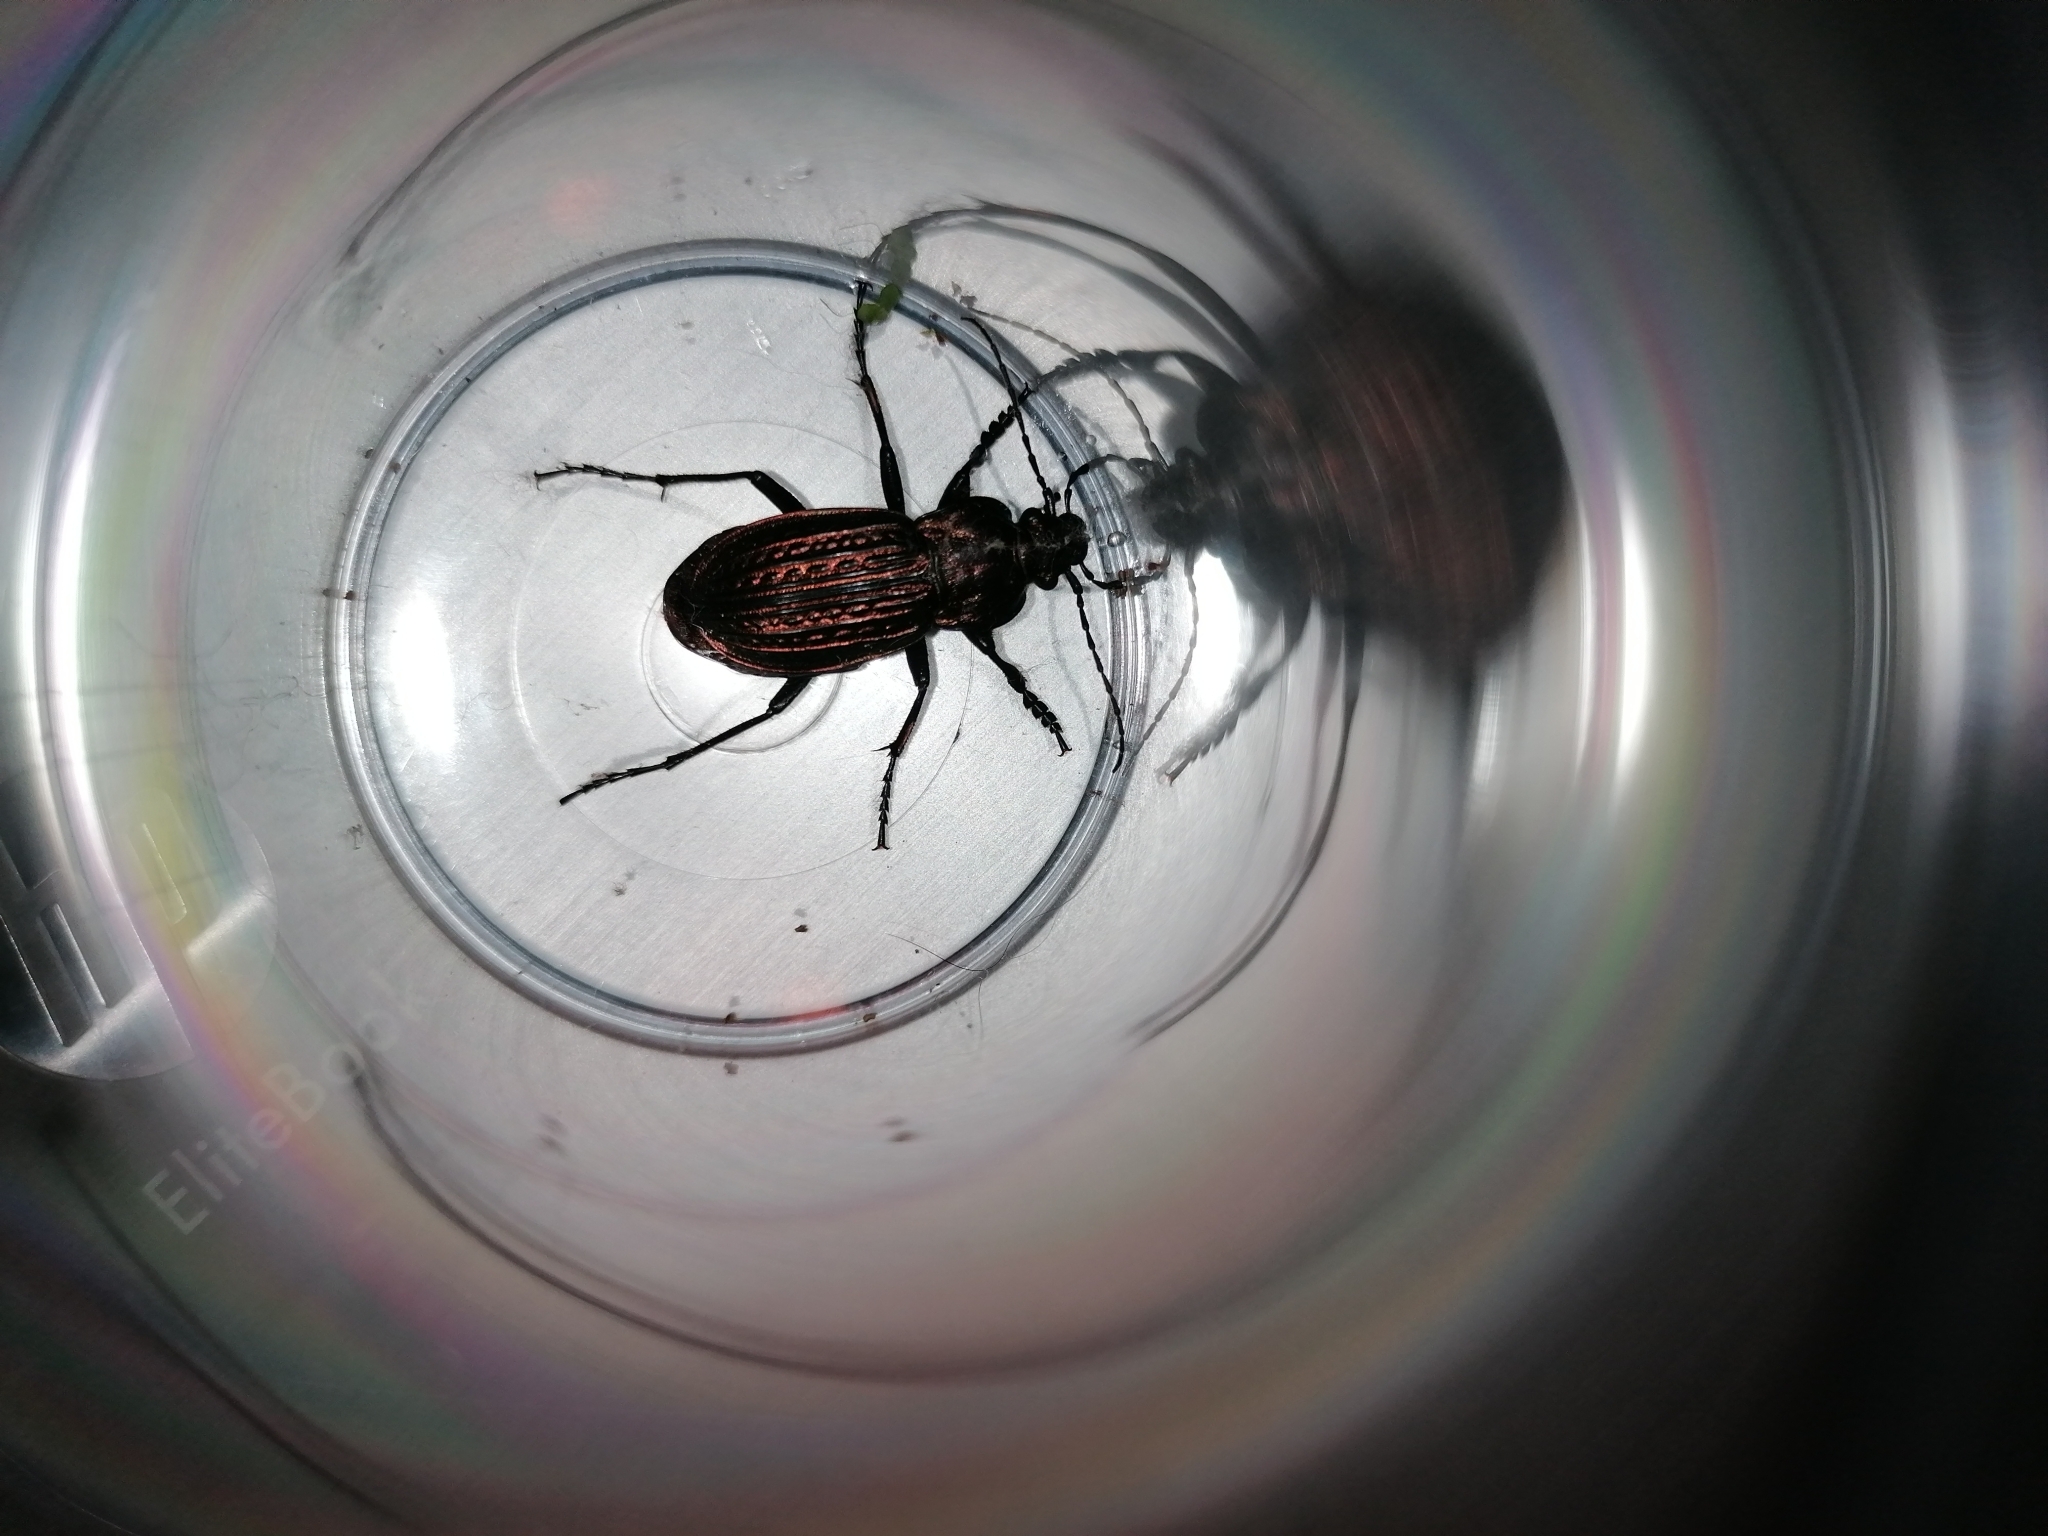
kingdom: Animalia
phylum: Arthropoda
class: Insecta
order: Coleoptera
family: Carabidae
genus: Carabus
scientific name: Carabus ulrichii
